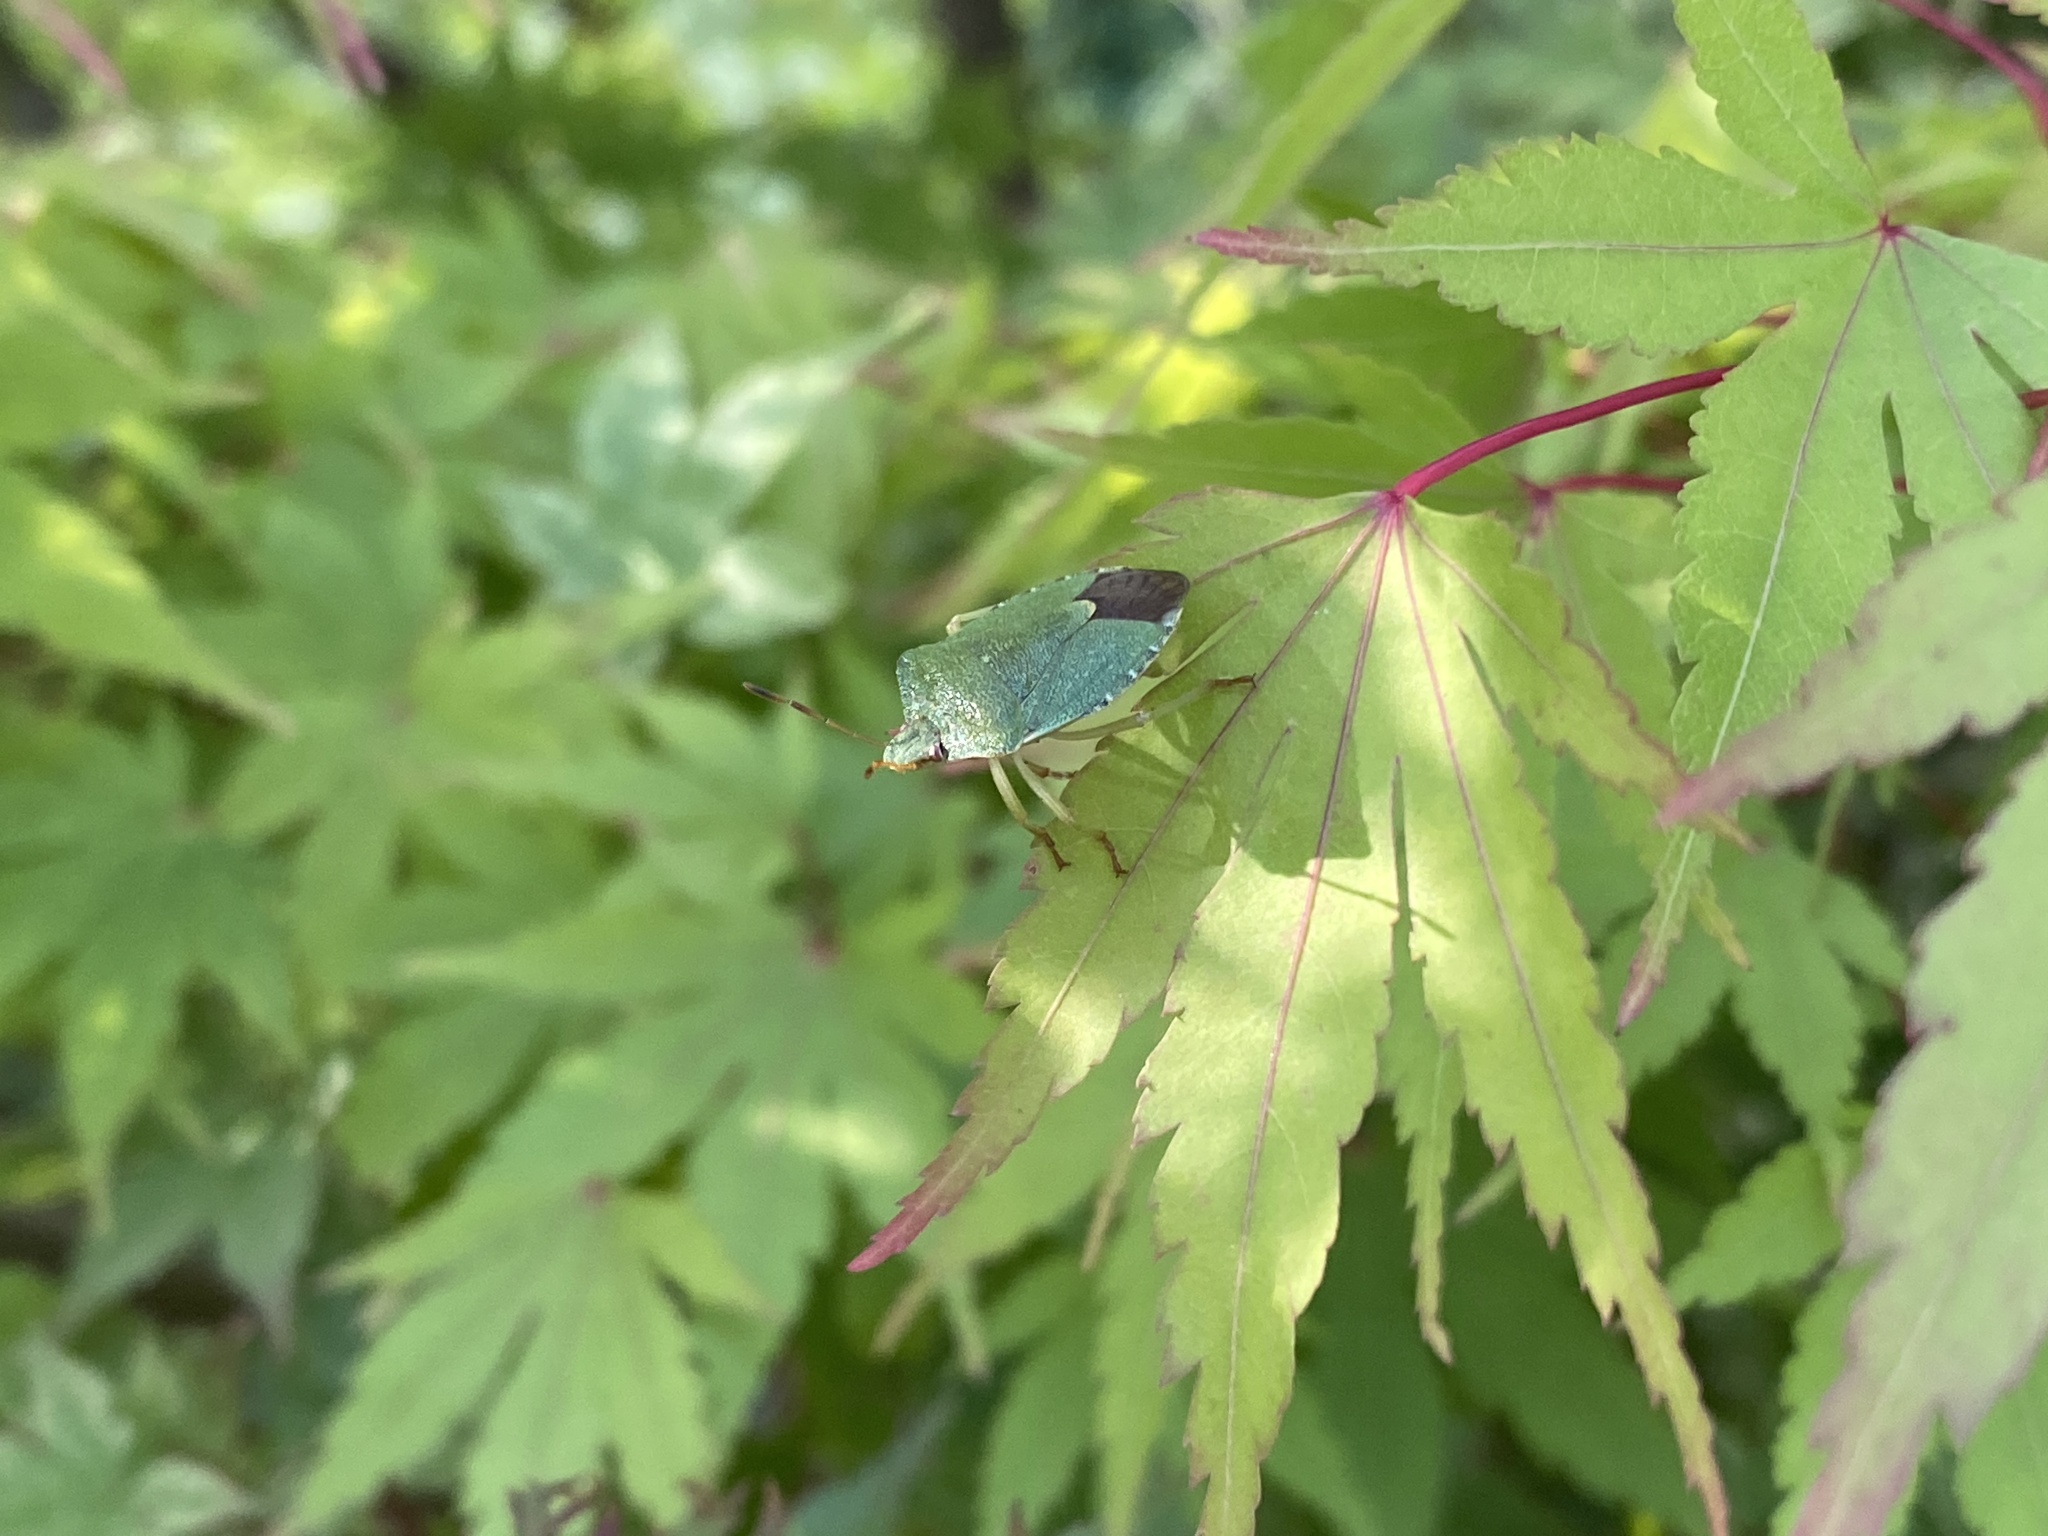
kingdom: Animalia
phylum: Arthropoda
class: Insecta
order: Hemiptera
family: Pentatomidae
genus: Palomena
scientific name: Palomena prasina
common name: Green shieldbug
